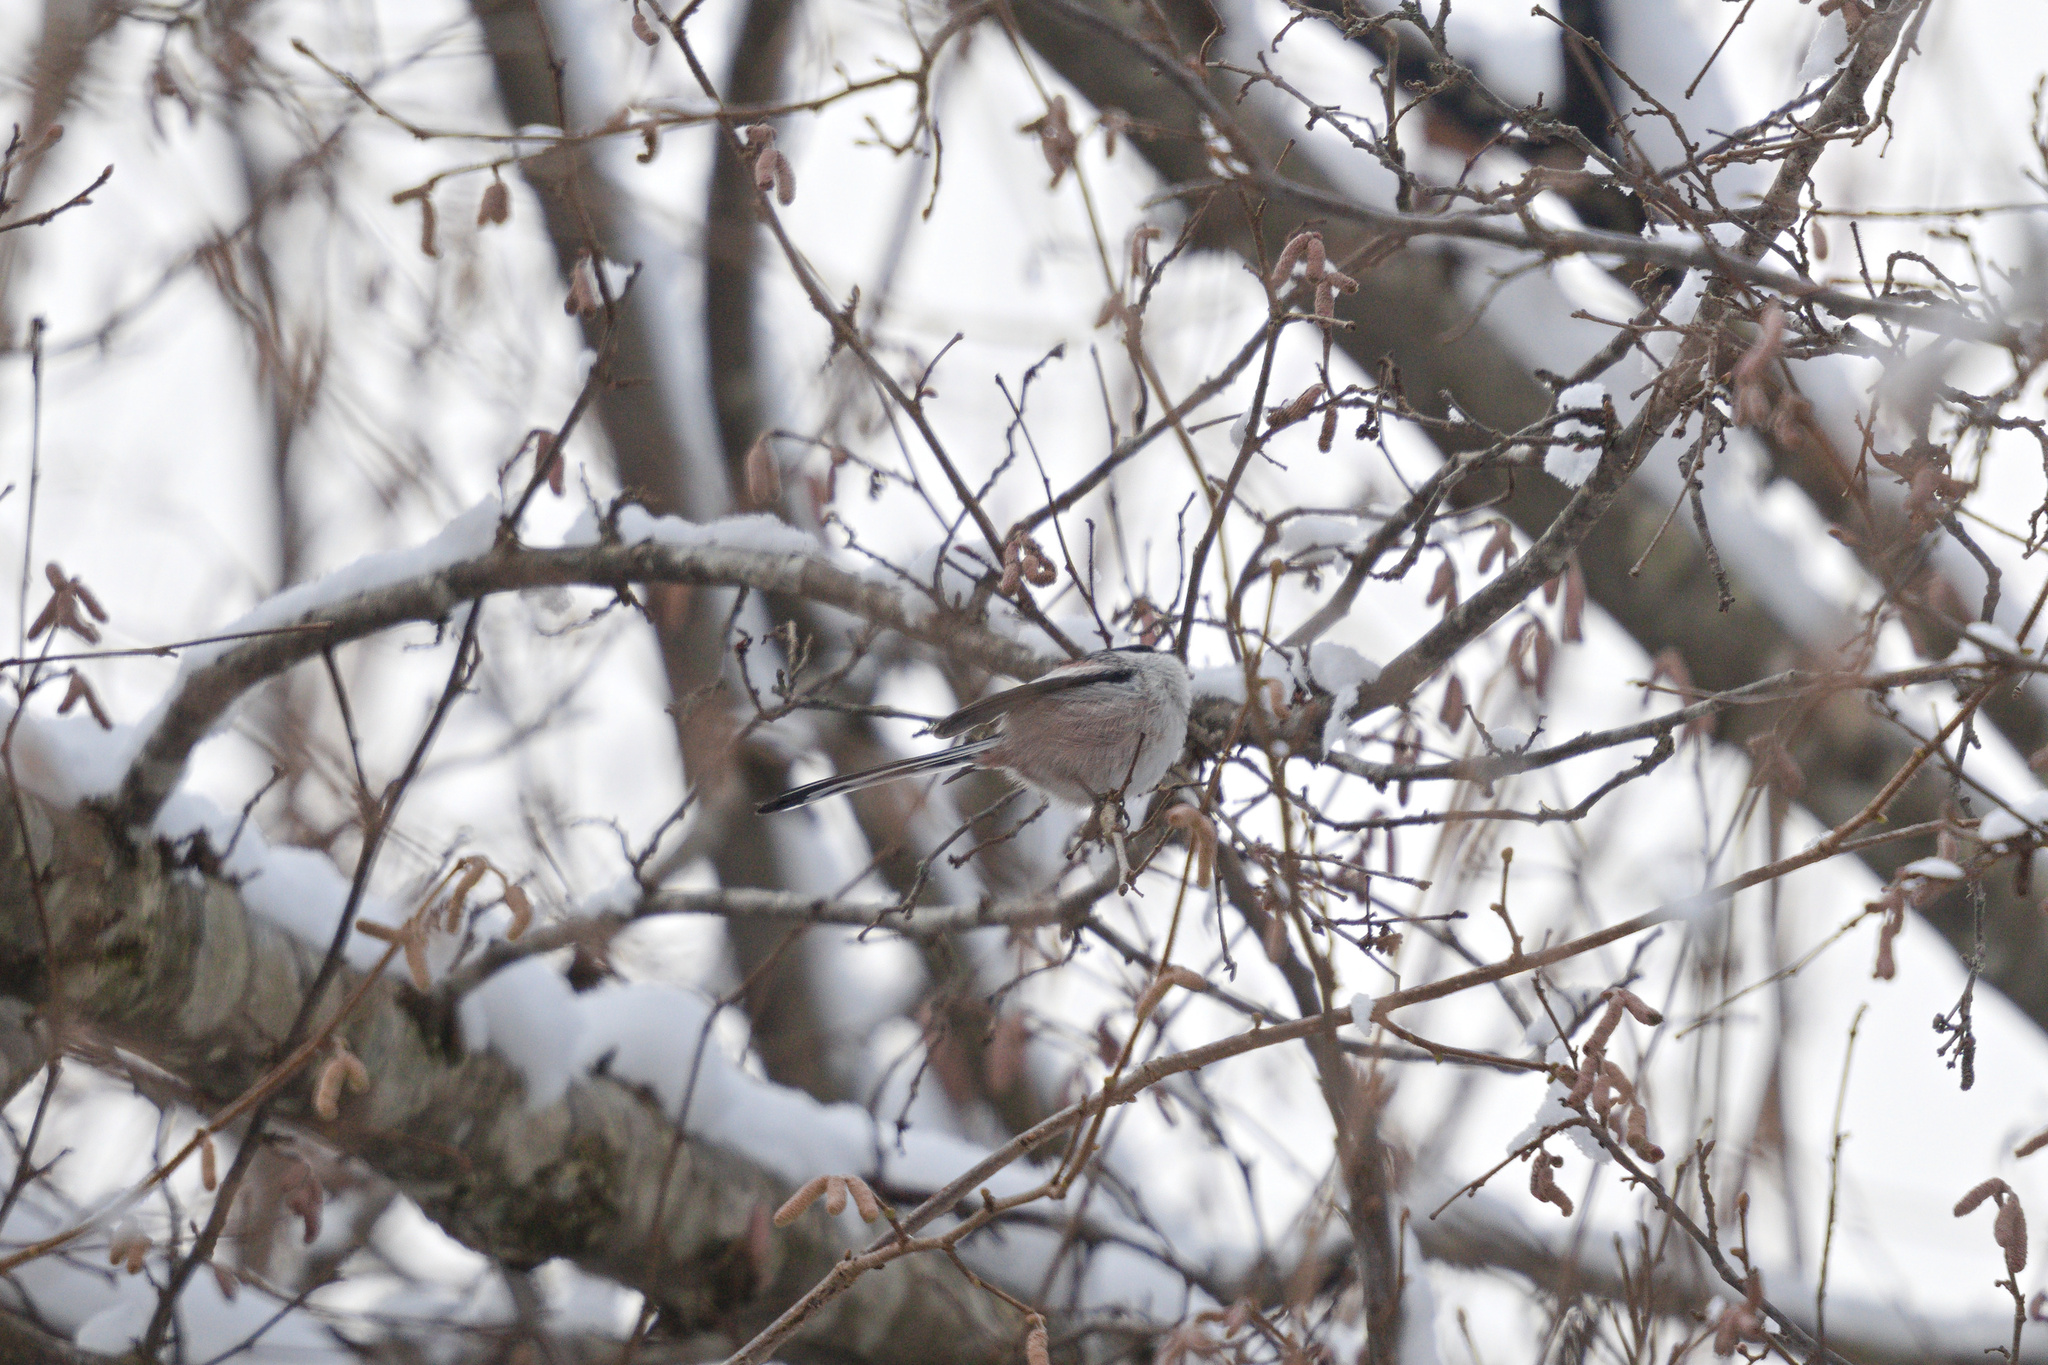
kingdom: Animalia
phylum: Chordata
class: Aves
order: Passeriformes
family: Aegithalidae
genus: Aegithalos
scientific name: Aegithalos caudatus
